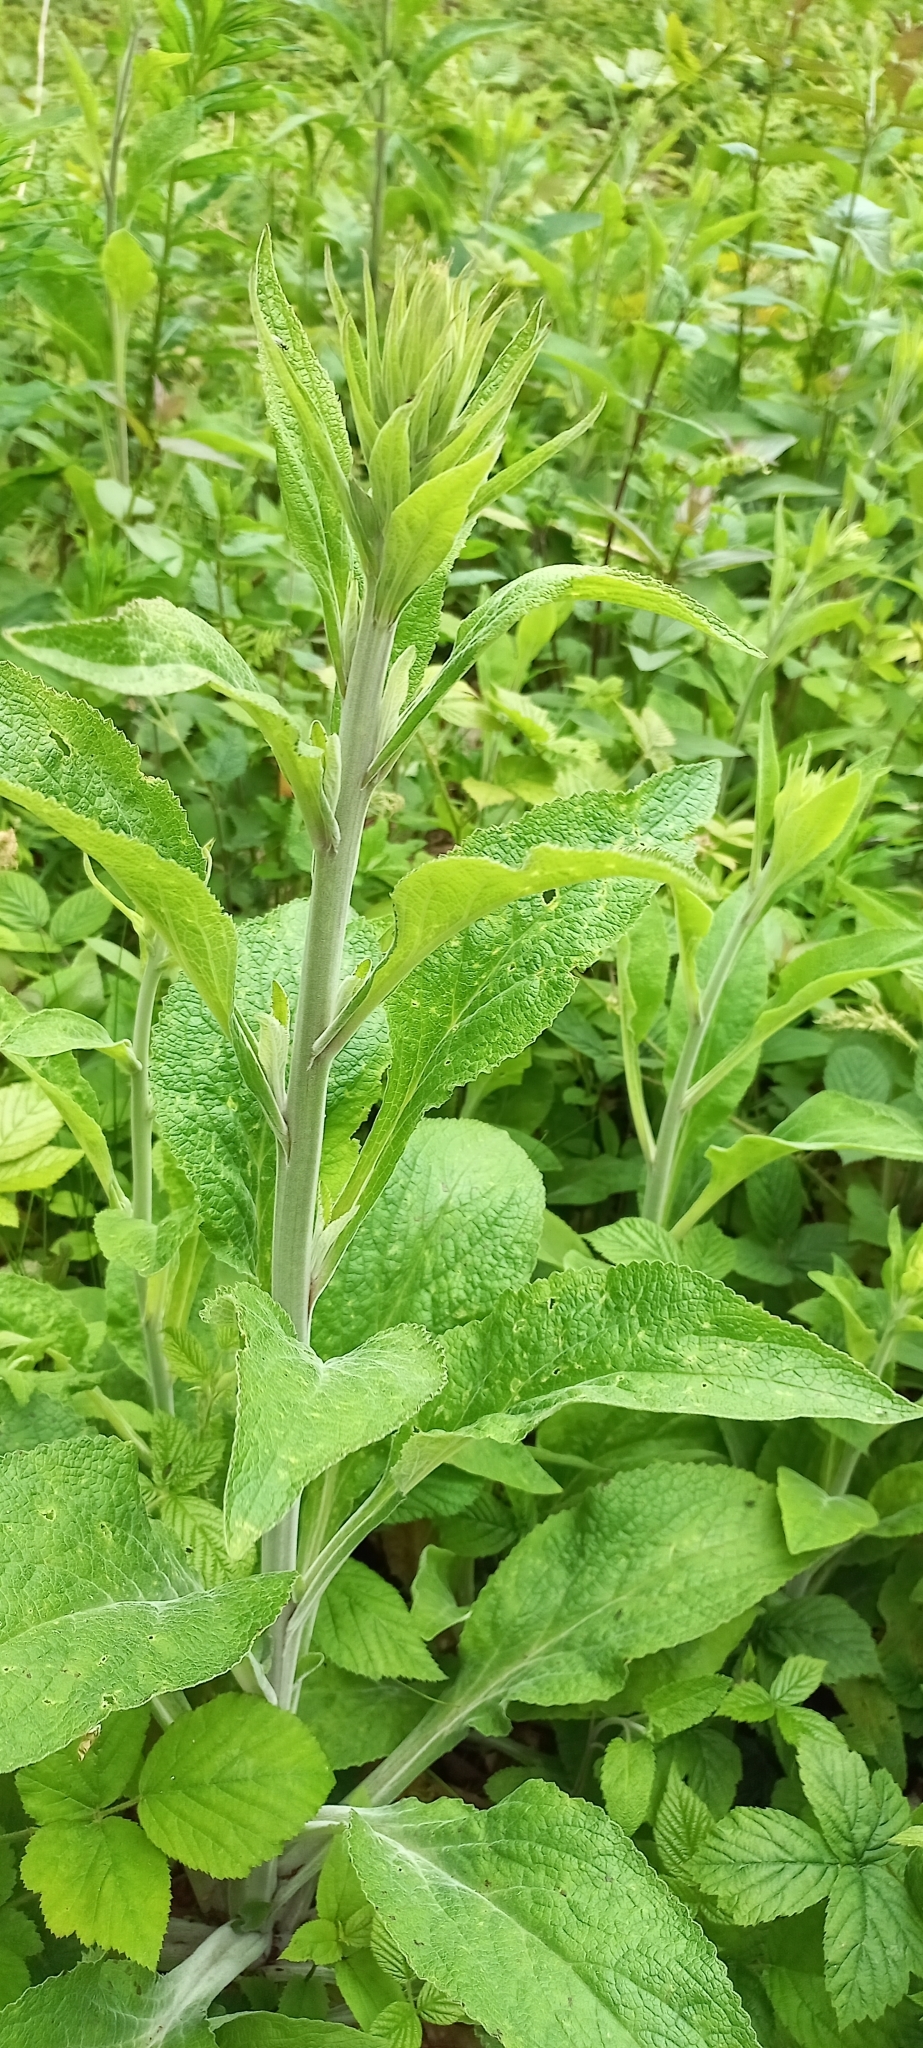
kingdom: Plantae
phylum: Tracheophyta
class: Magnoliopsida
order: Lamiales
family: Plantaginaceae
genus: Digitalis
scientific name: Digitalis purpurea
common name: Foxglove
